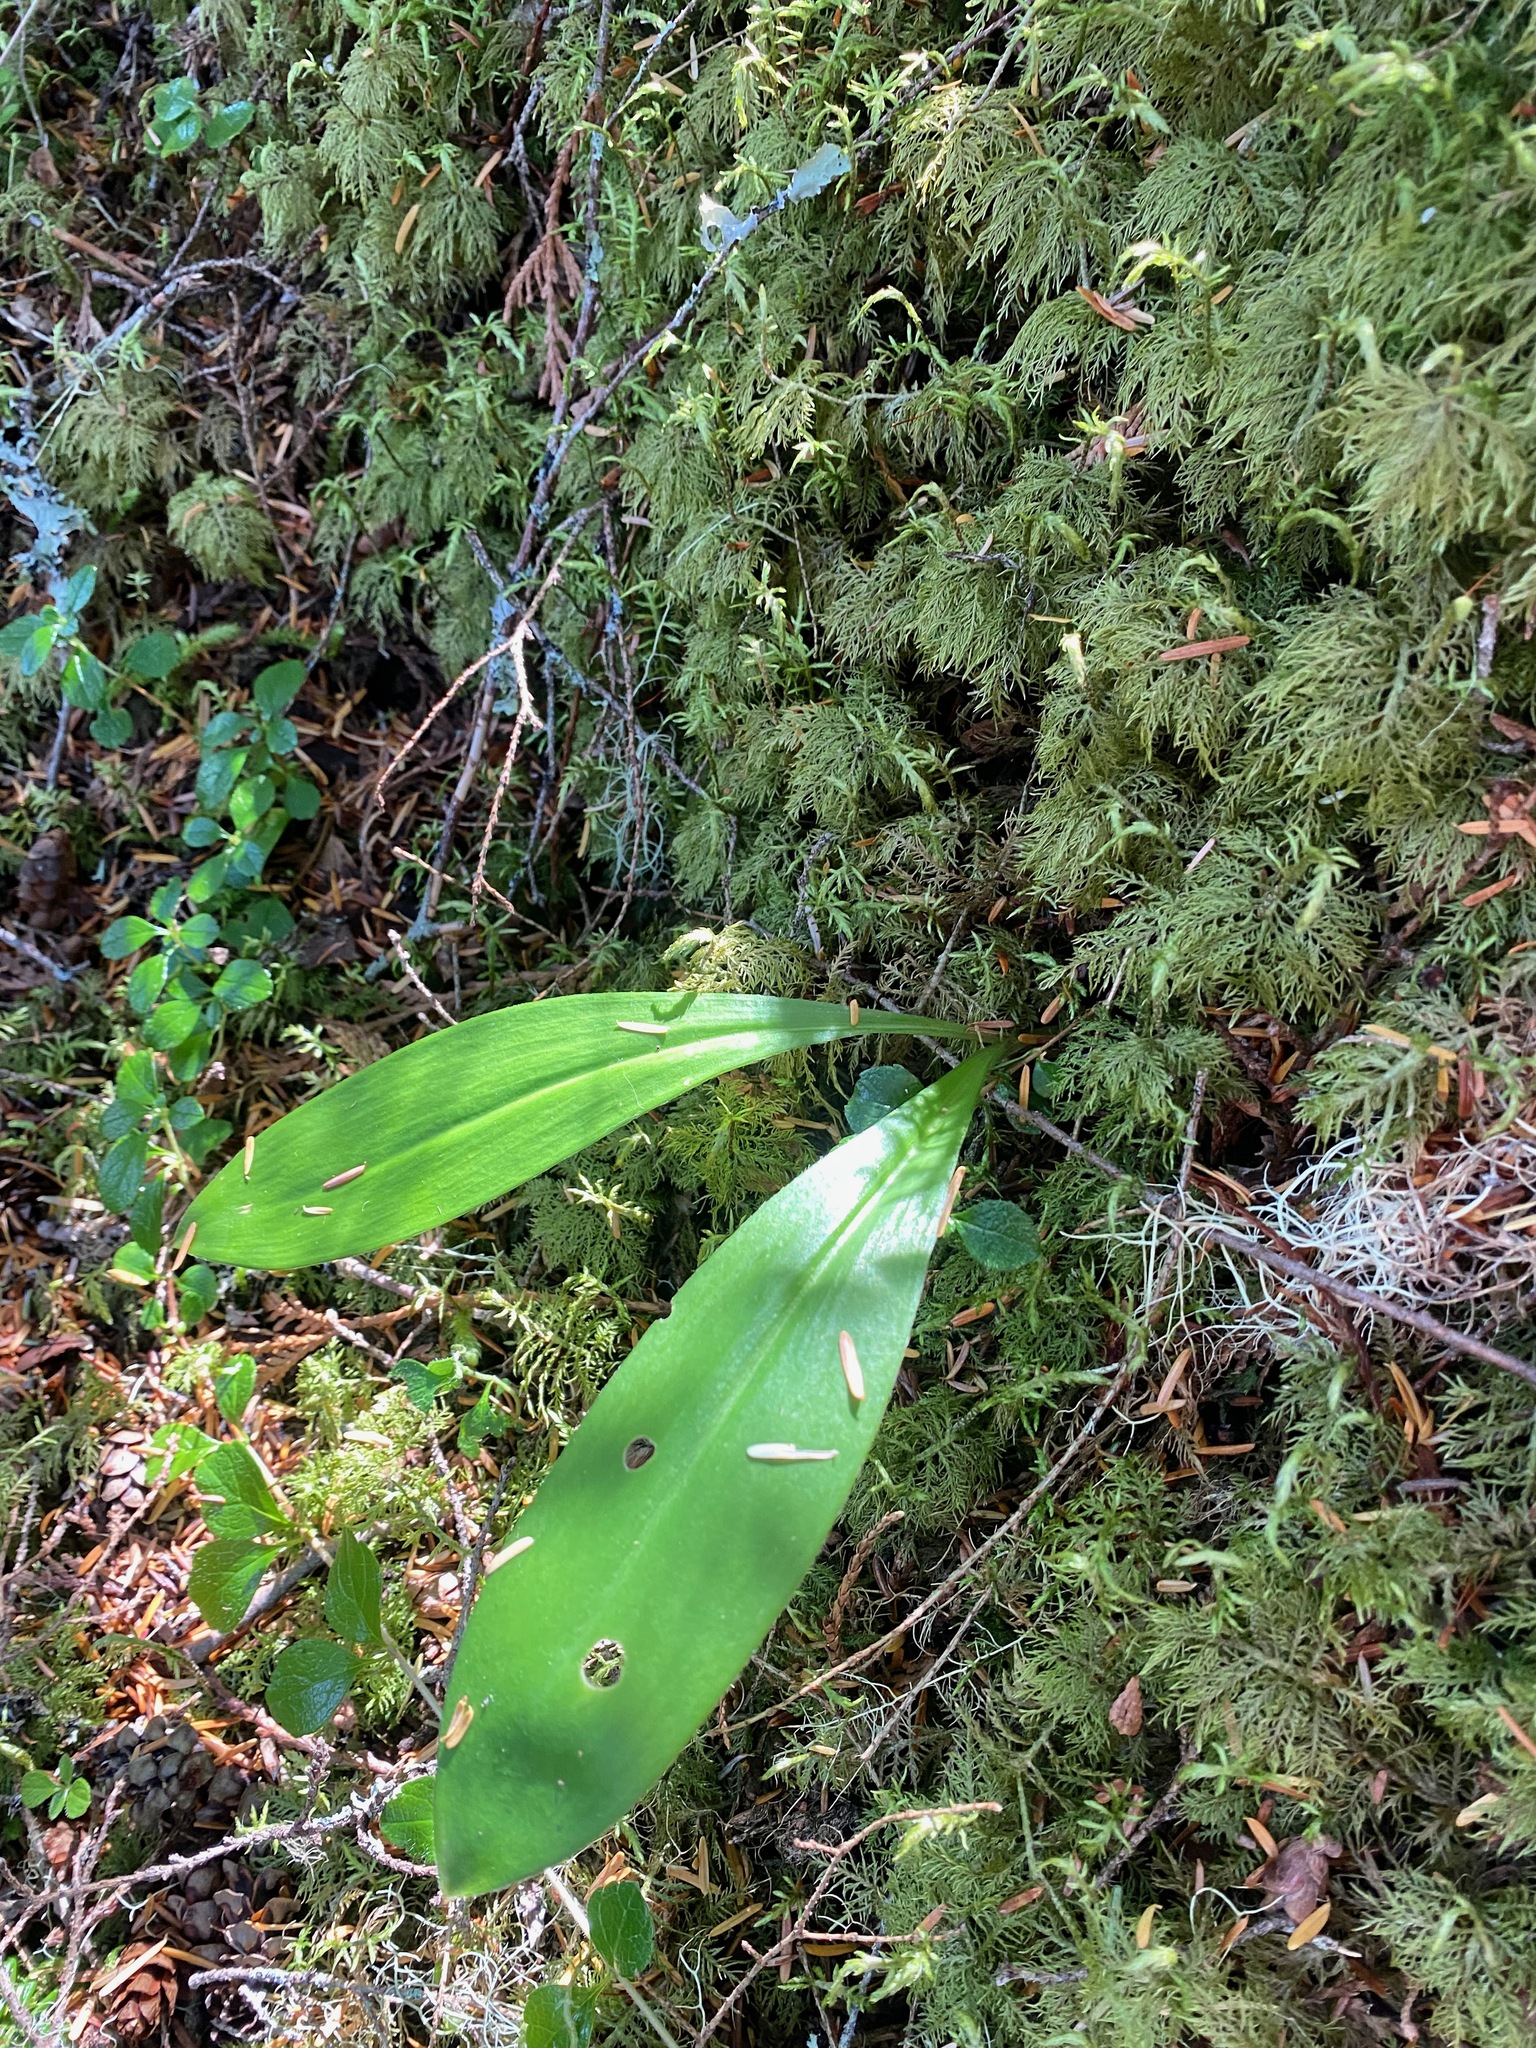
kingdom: Plantae
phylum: Tracheophyta
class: Liliopsida
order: Liliales
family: Liliaceae
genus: Clintonia
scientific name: Clintonia uniflora
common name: Queen's cup
